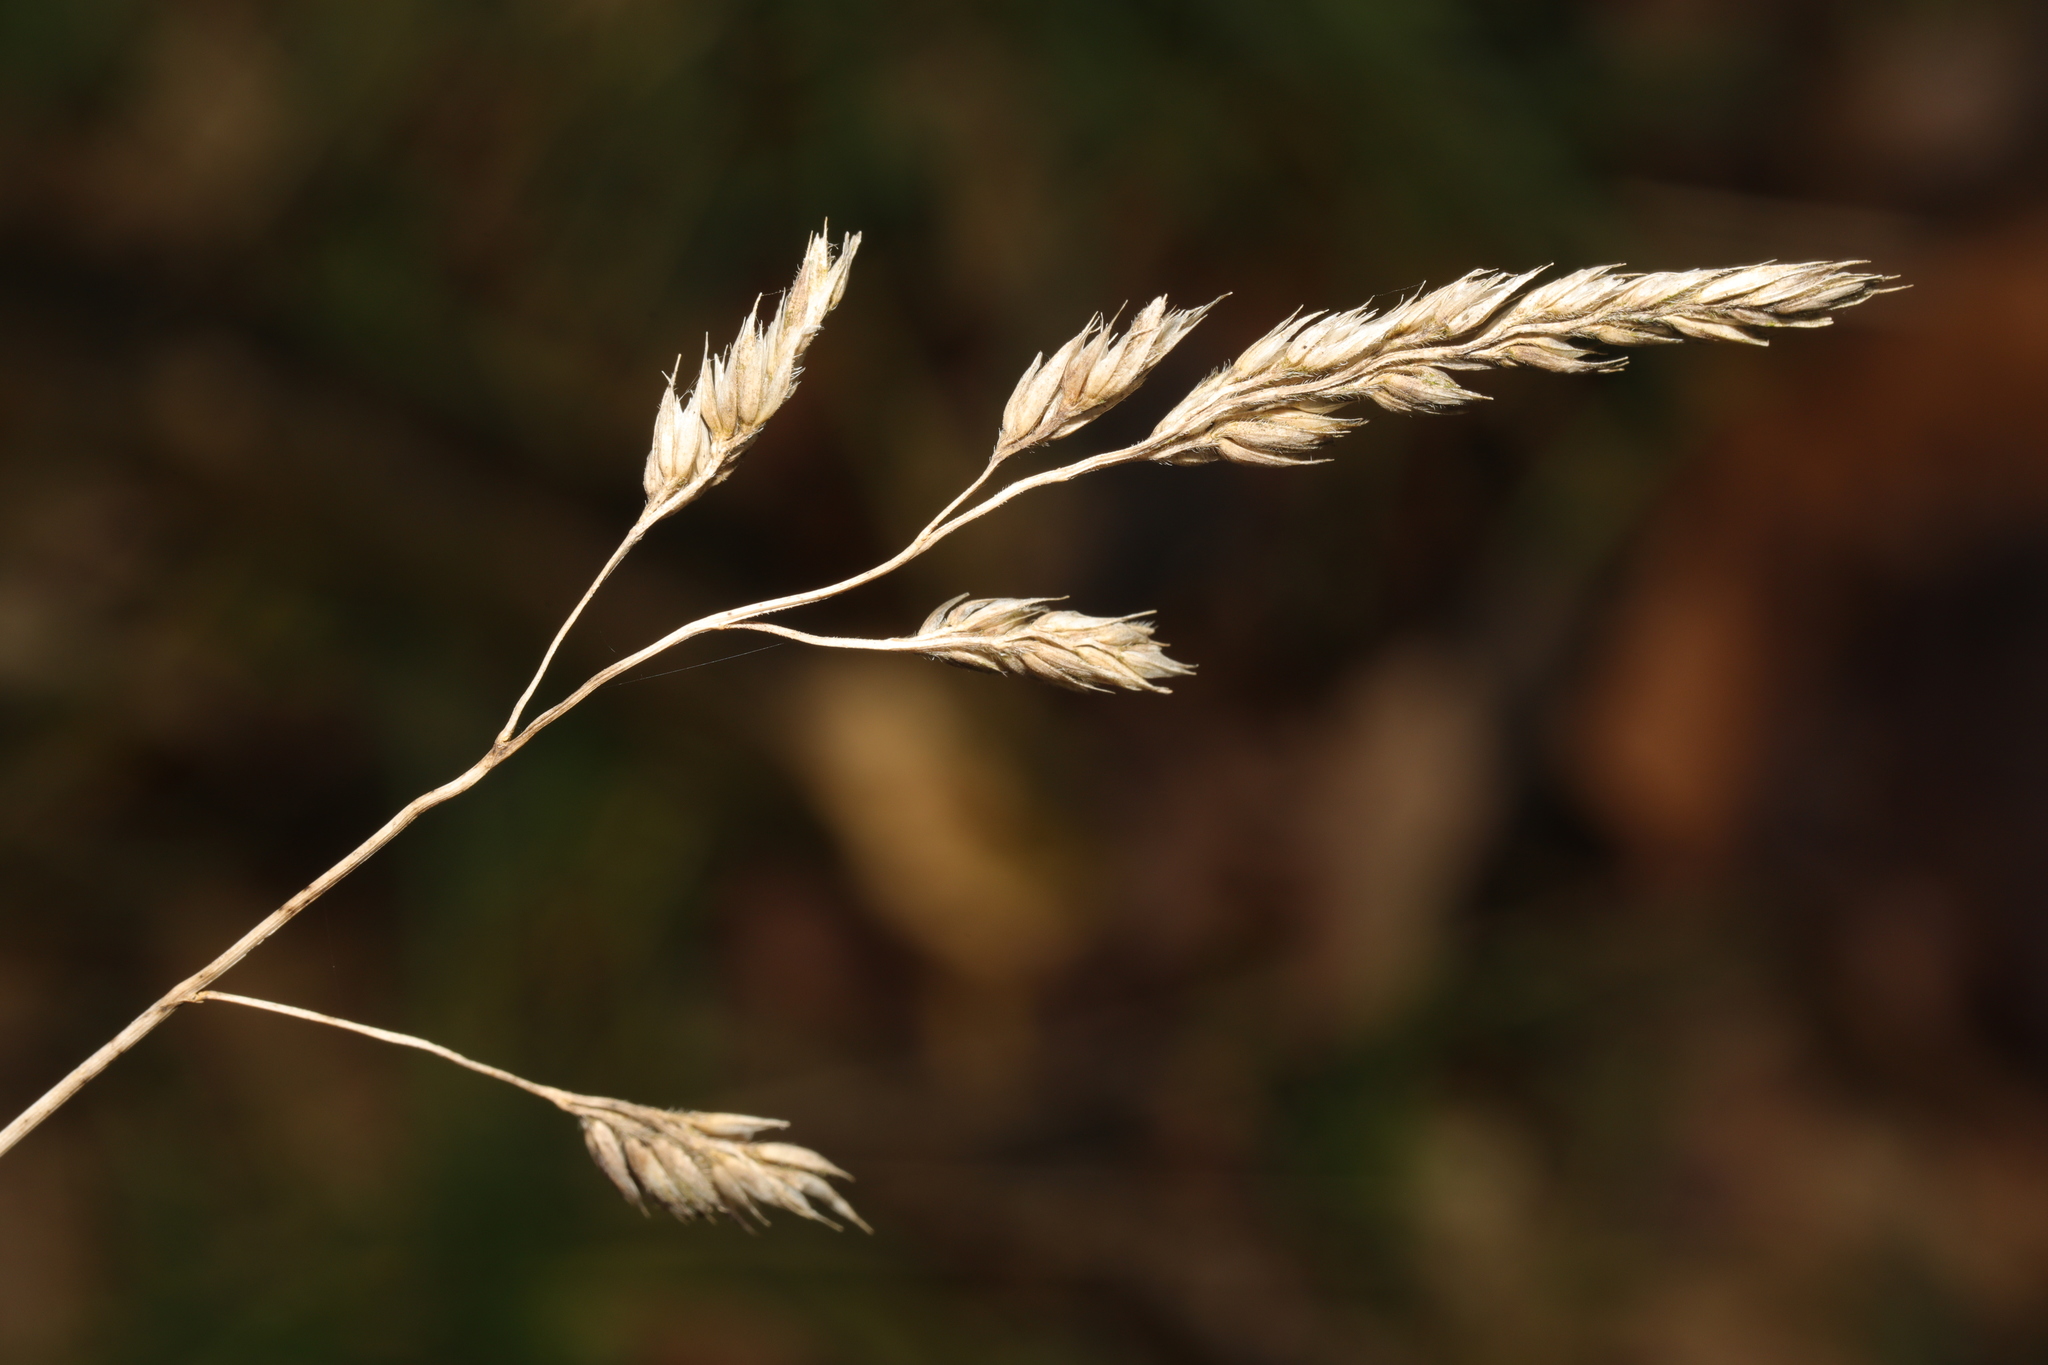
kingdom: Plantae
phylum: Tracheophyta
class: Liliopsida
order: Poales
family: Poaceae
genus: Dactylis
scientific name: Dactylis glomerata
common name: Orchardgrass
